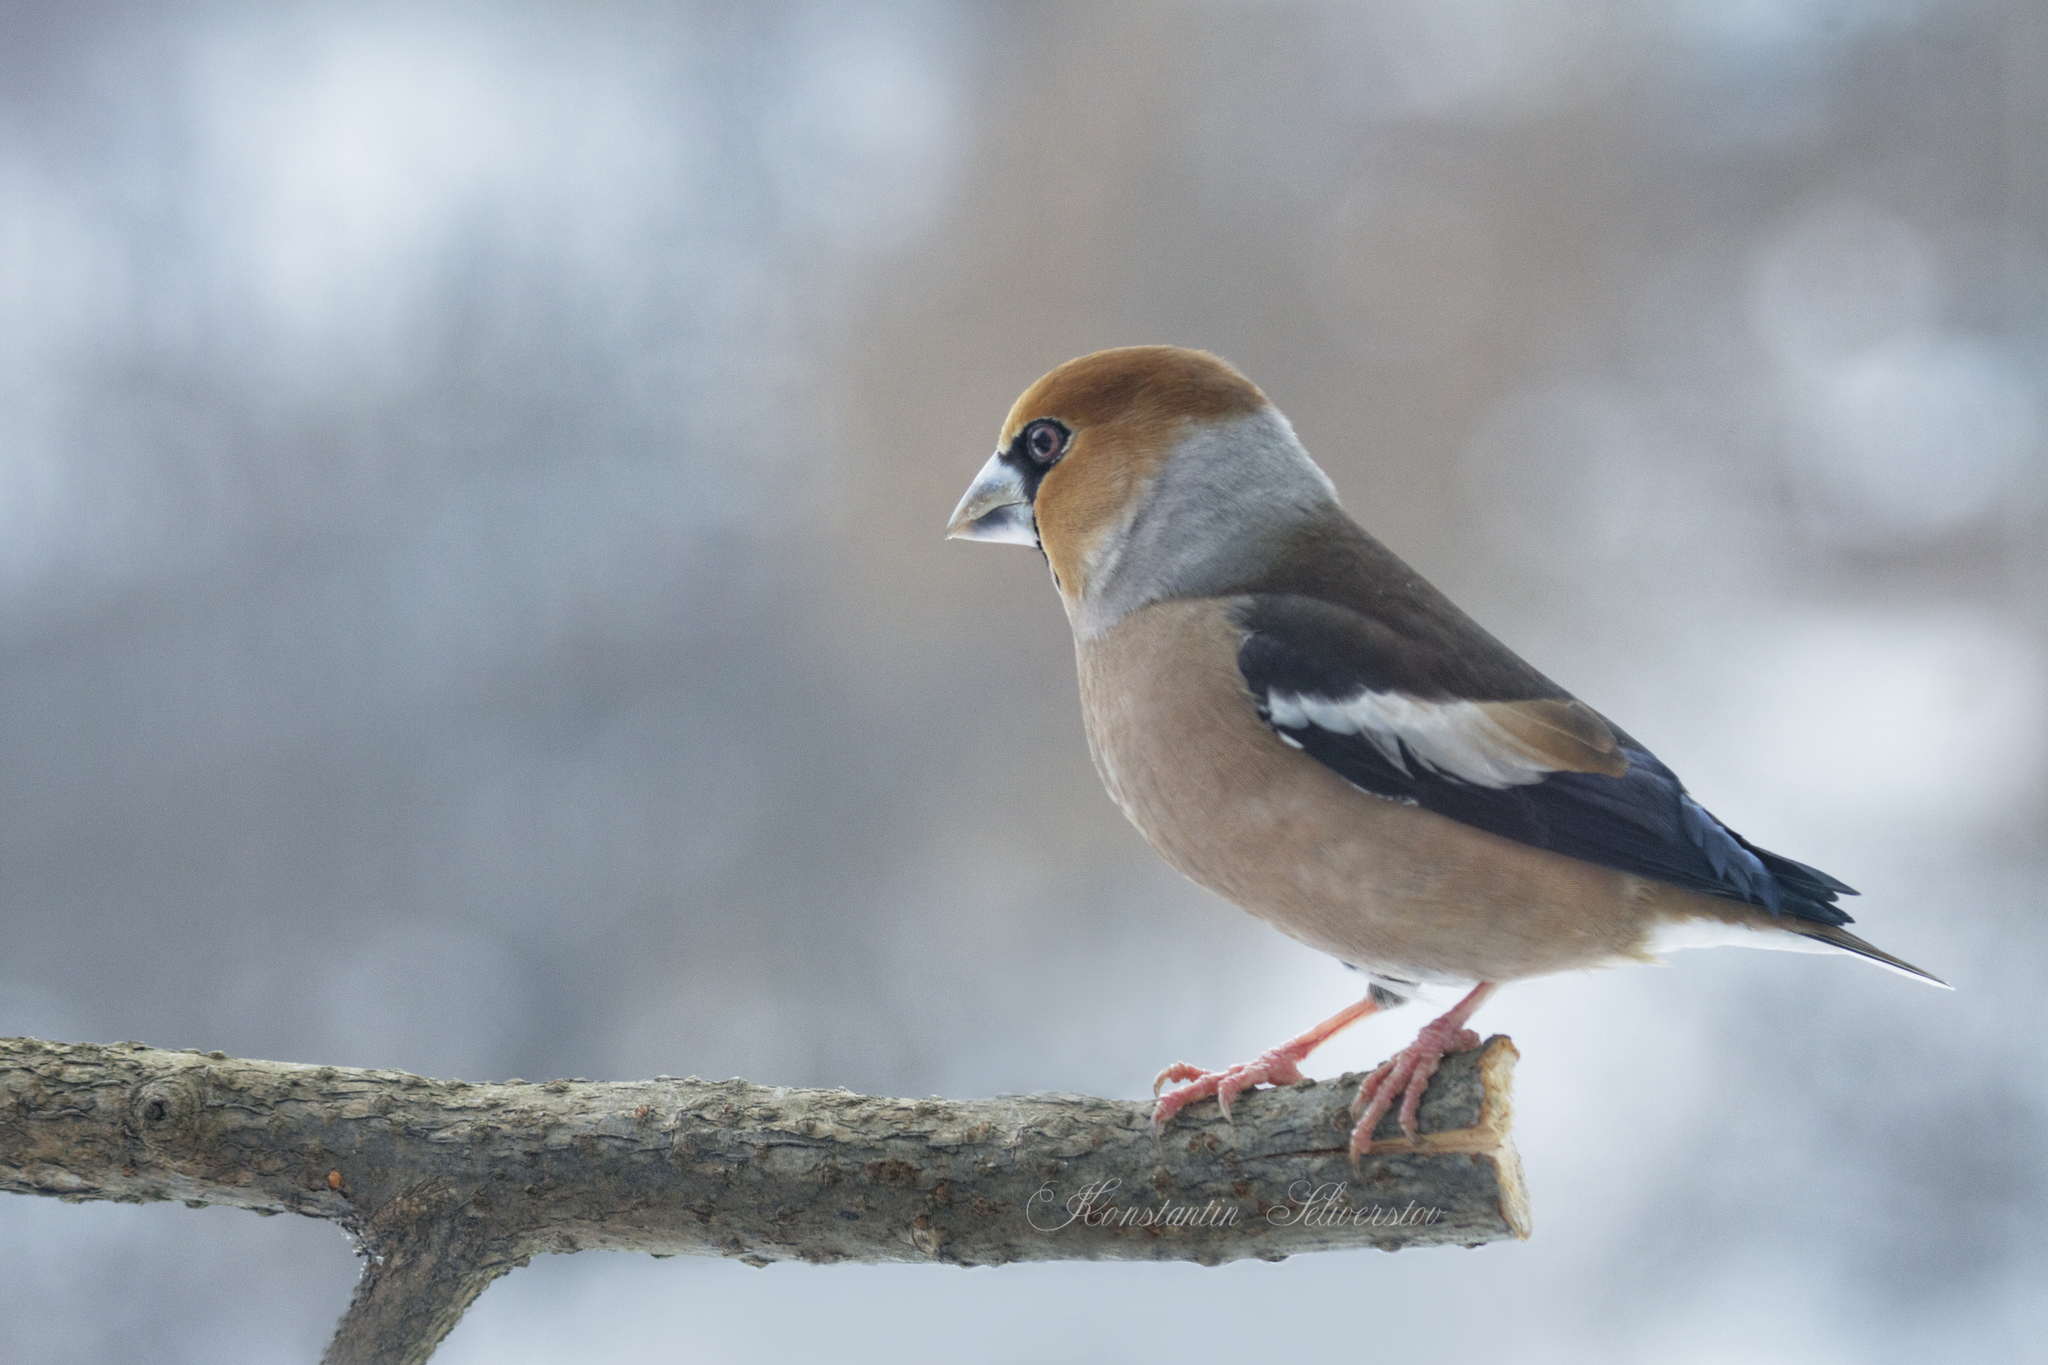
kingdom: Animalia
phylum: Chordata
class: Aves
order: Passeriformes
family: Fringillidae
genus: Coccothraustes
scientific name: Coccothraustes coccothraustes
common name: Hawfinch
